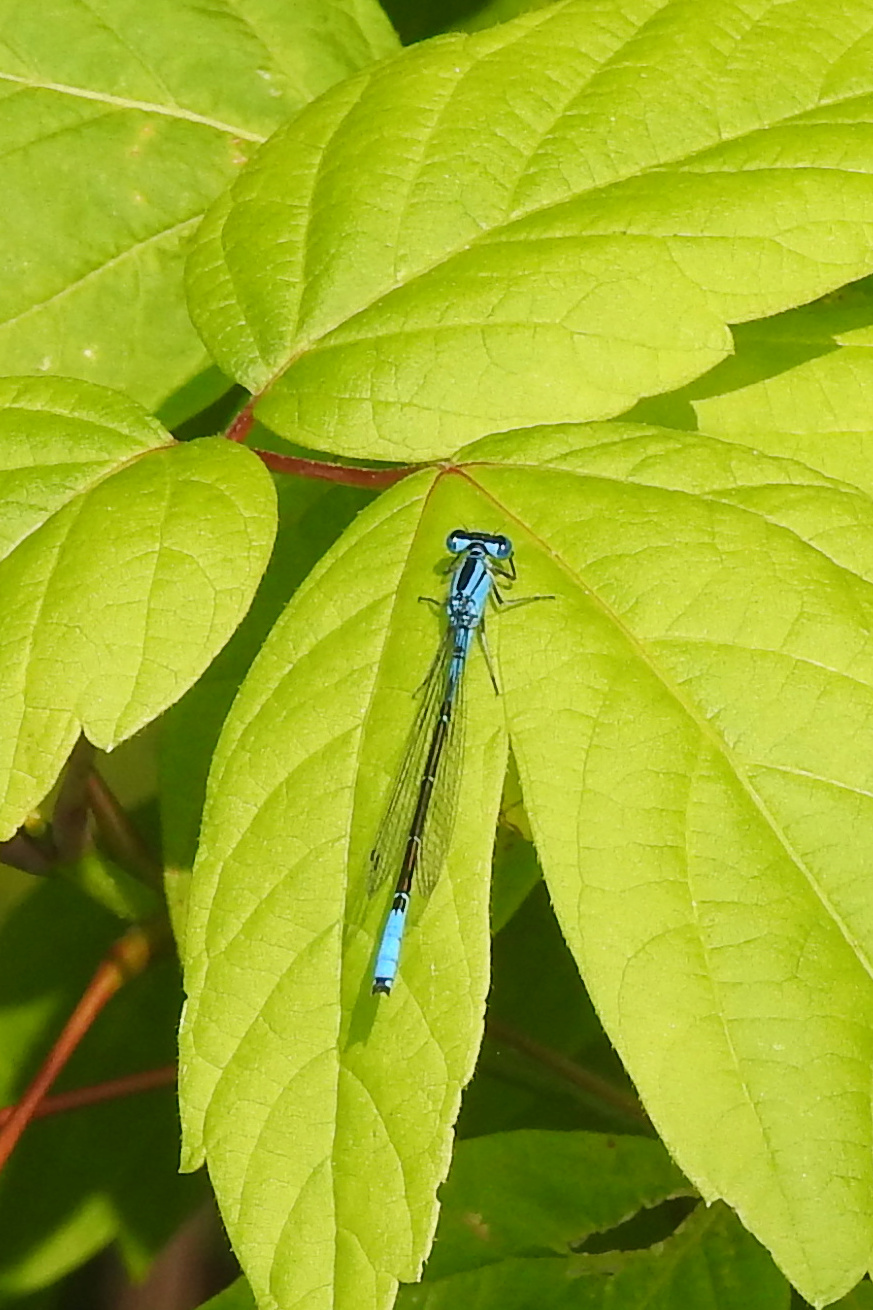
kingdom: Animalia
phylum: Arthropoda
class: Insecta
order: Odonata
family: Coenagrionidae
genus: Enallagma
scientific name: Enallagma aspersum
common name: Azure bluet
